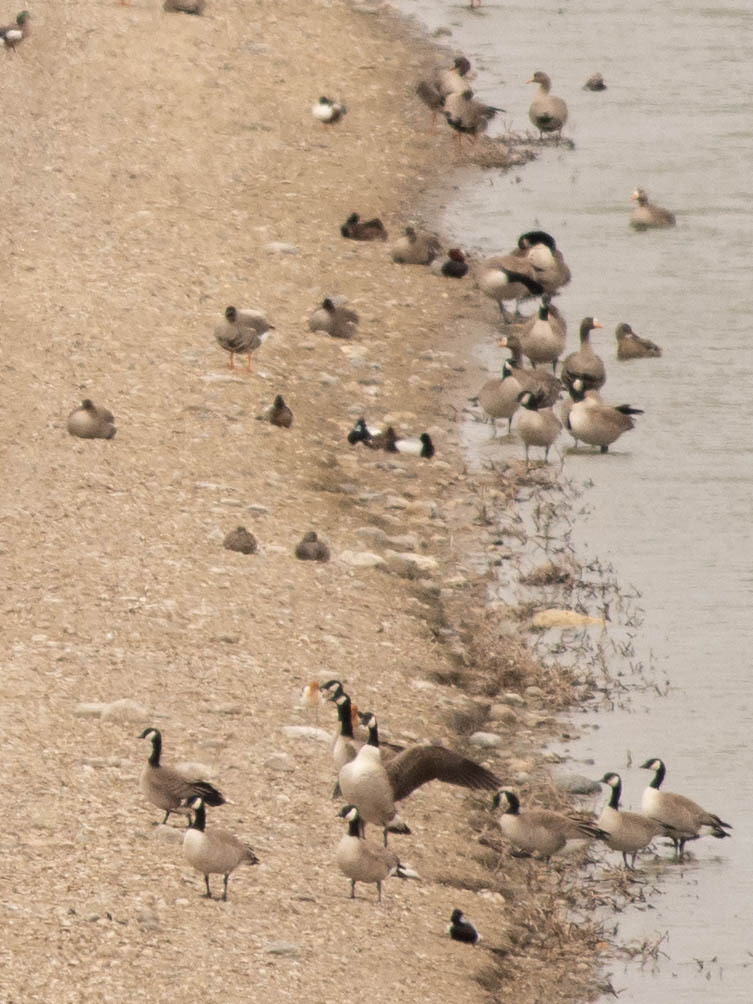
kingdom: Animalia
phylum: Chordata
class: Aves
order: Anseriformes
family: Anatidae
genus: Branta
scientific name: Branta hutchinsii
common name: Cackling goose
